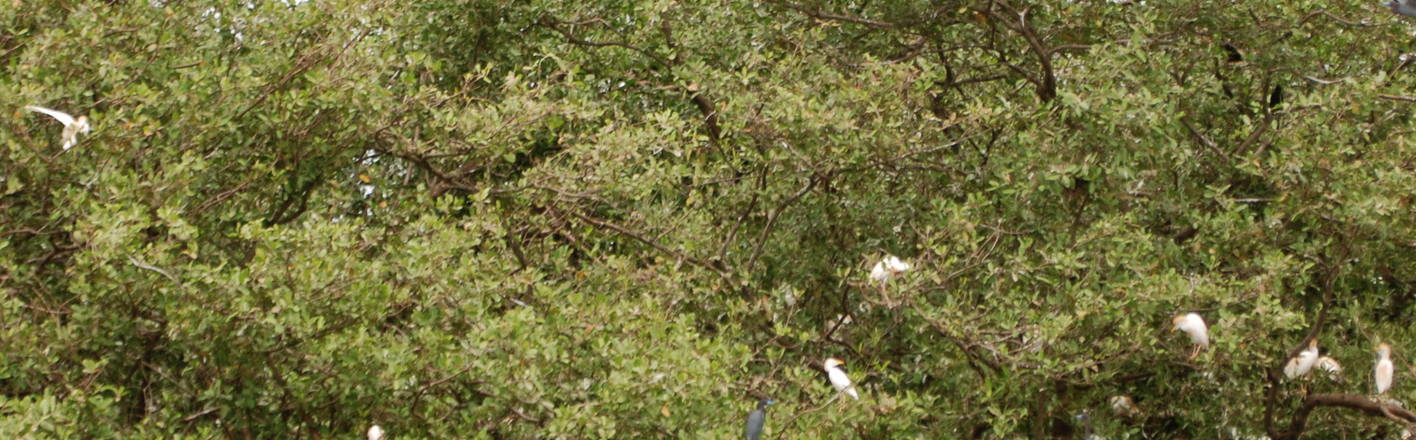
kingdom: Animalia
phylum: Chordata
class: Aves
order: Pelecaniformes
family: Ardeidae
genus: Bubulcus
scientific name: Bubulcus ibis
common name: Cattle egret
